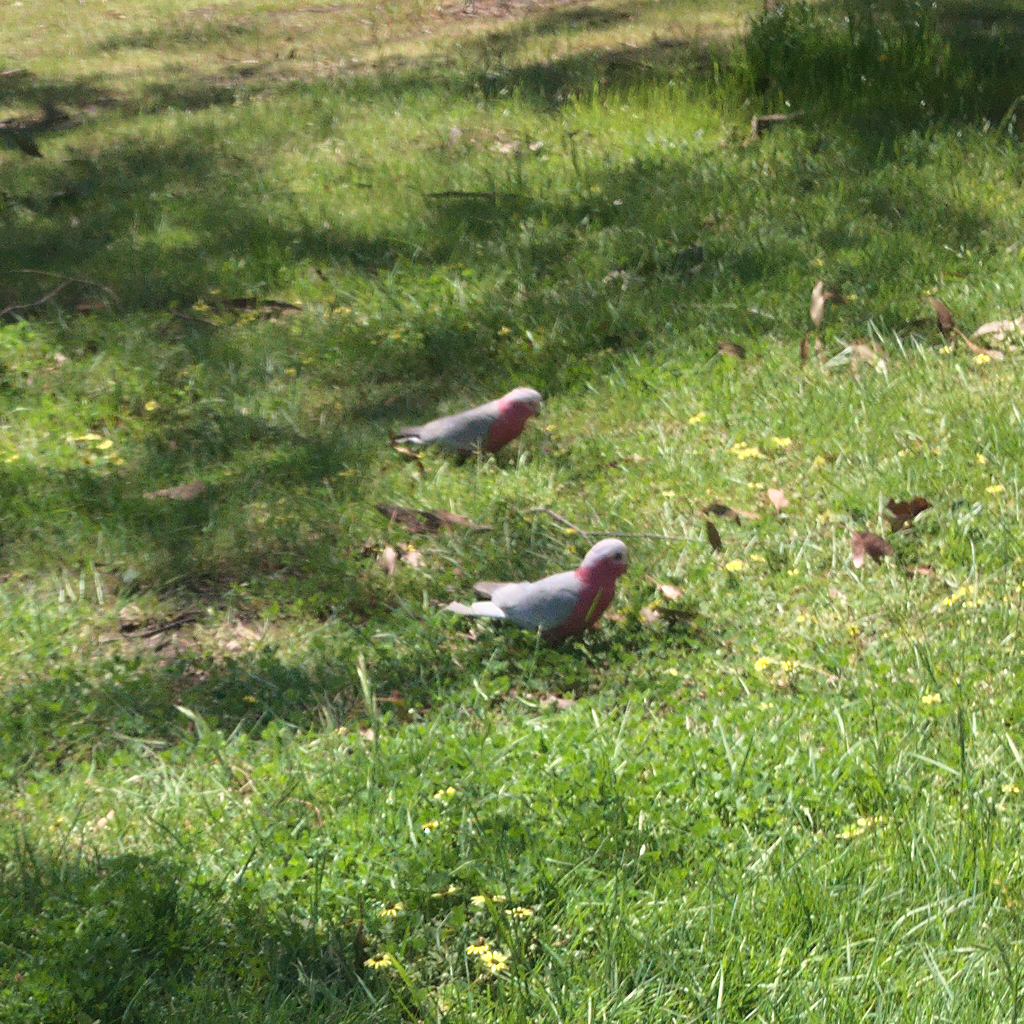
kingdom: Animalia
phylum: Chordata
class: Aves
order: Psittaciformes
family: Psittacidae
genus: Eolophus
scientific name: Eolophus roseicapilla
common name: Galah
